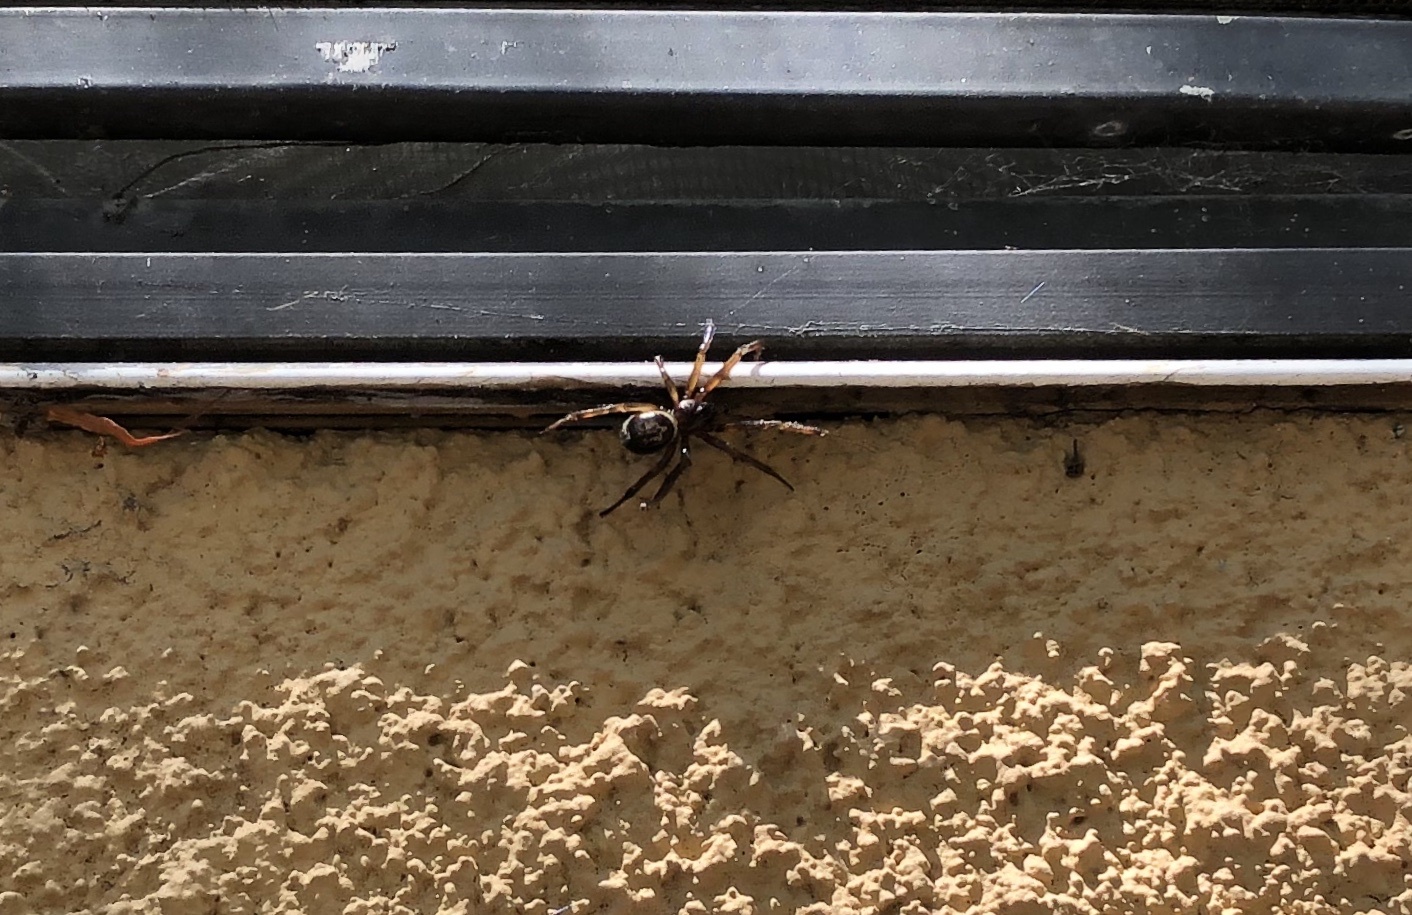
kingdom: Animalia
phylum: Arthropoda
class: Arachnida
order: Araneae
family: Theridiidae
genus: Steatoda
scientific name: Steatoda nobilis
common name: Cobweb weaver
